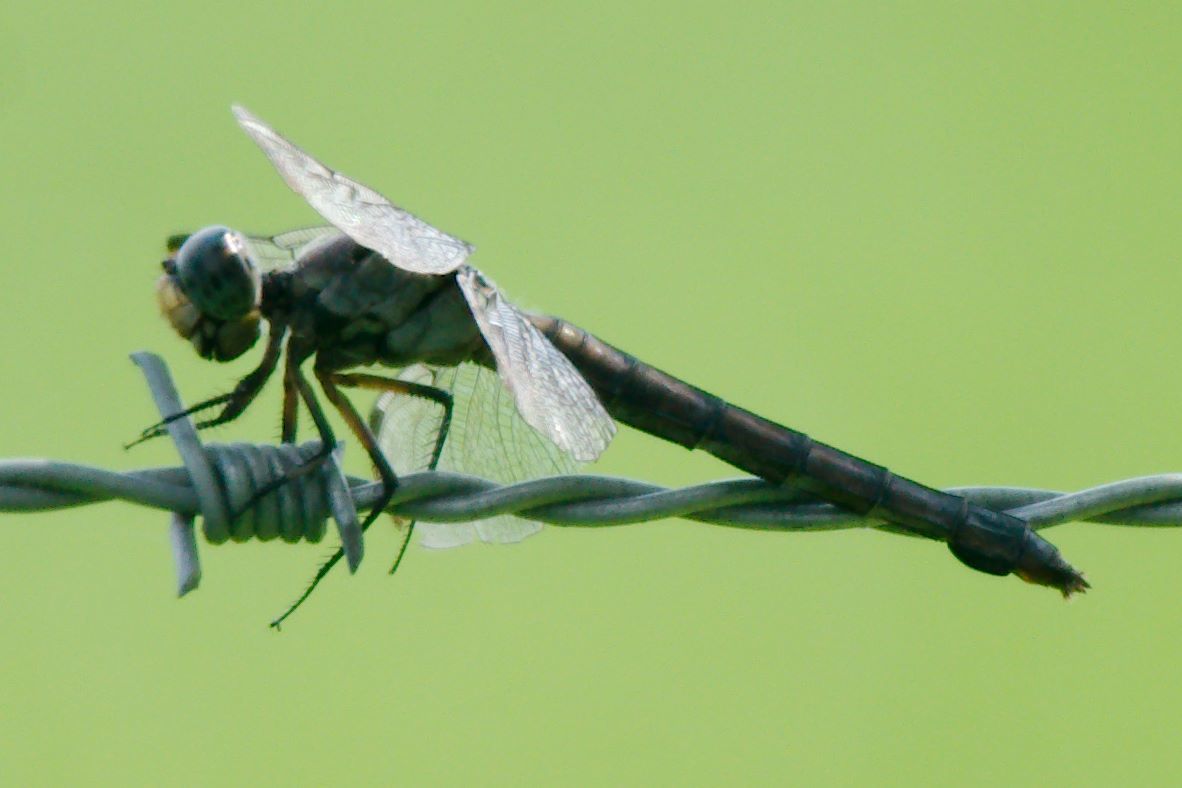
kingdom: Animalia
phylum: Arthropoda
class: Insecta
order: Odonata
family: Libellulidae
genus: Libellula
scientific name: Libellula vibrans
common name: Great blue skimmer
